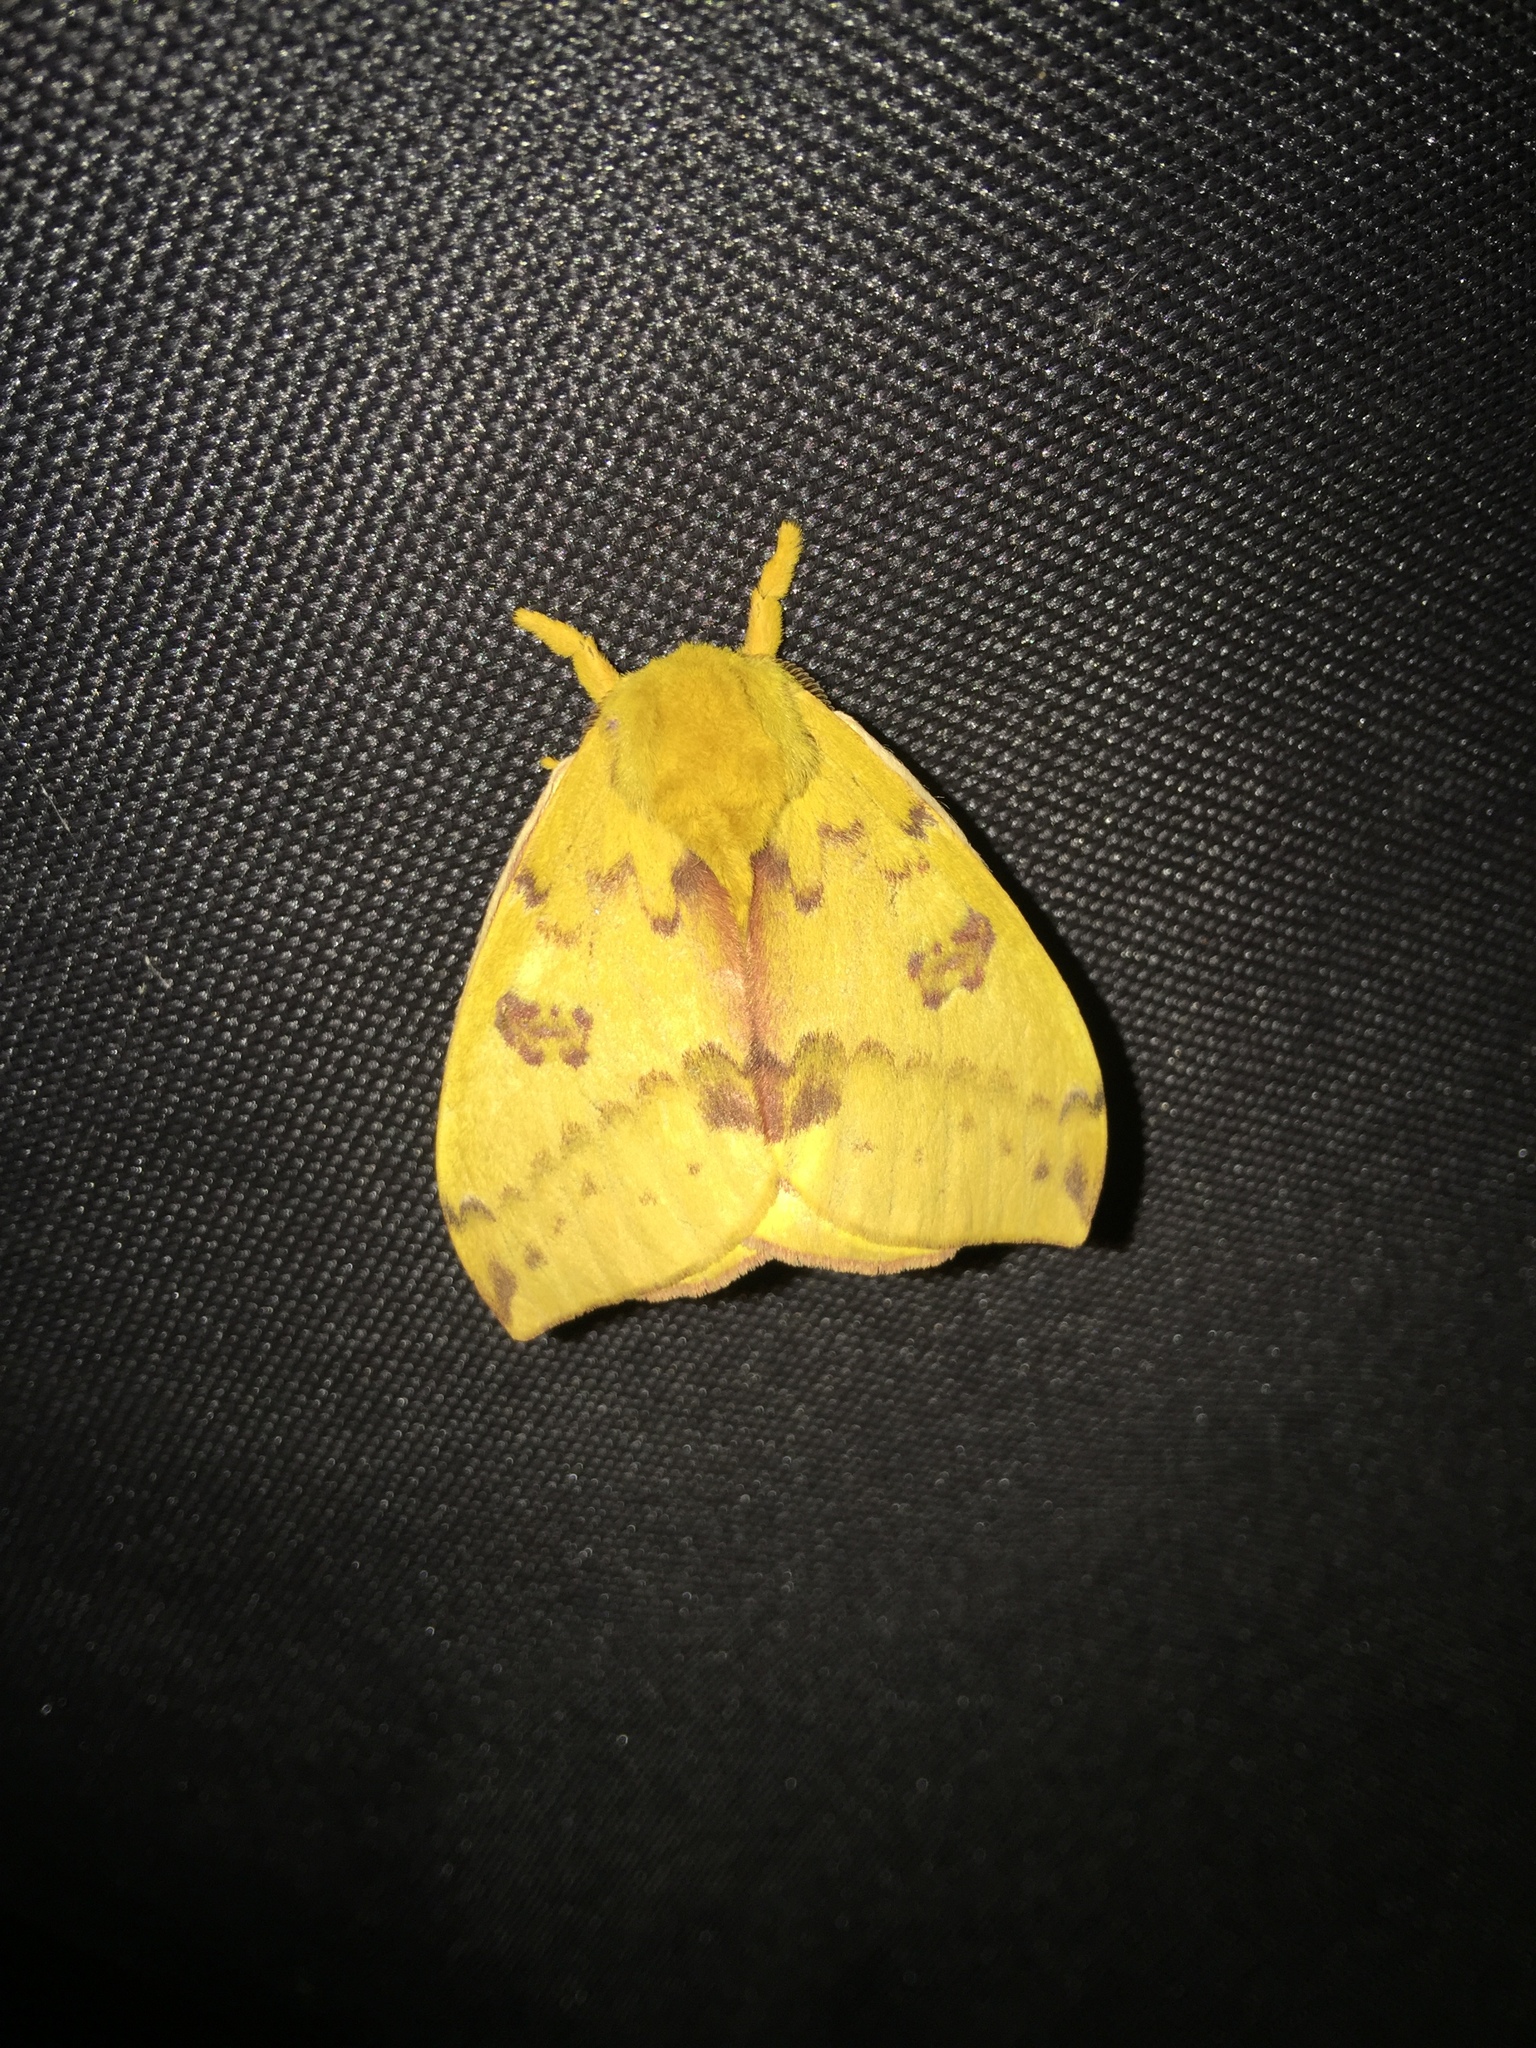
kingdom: Animalia
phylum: Arthropoda
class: Insecta
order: Lepidoptera
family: Saturniidae
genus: Automeris
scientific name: Automeris io
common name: Io moth
